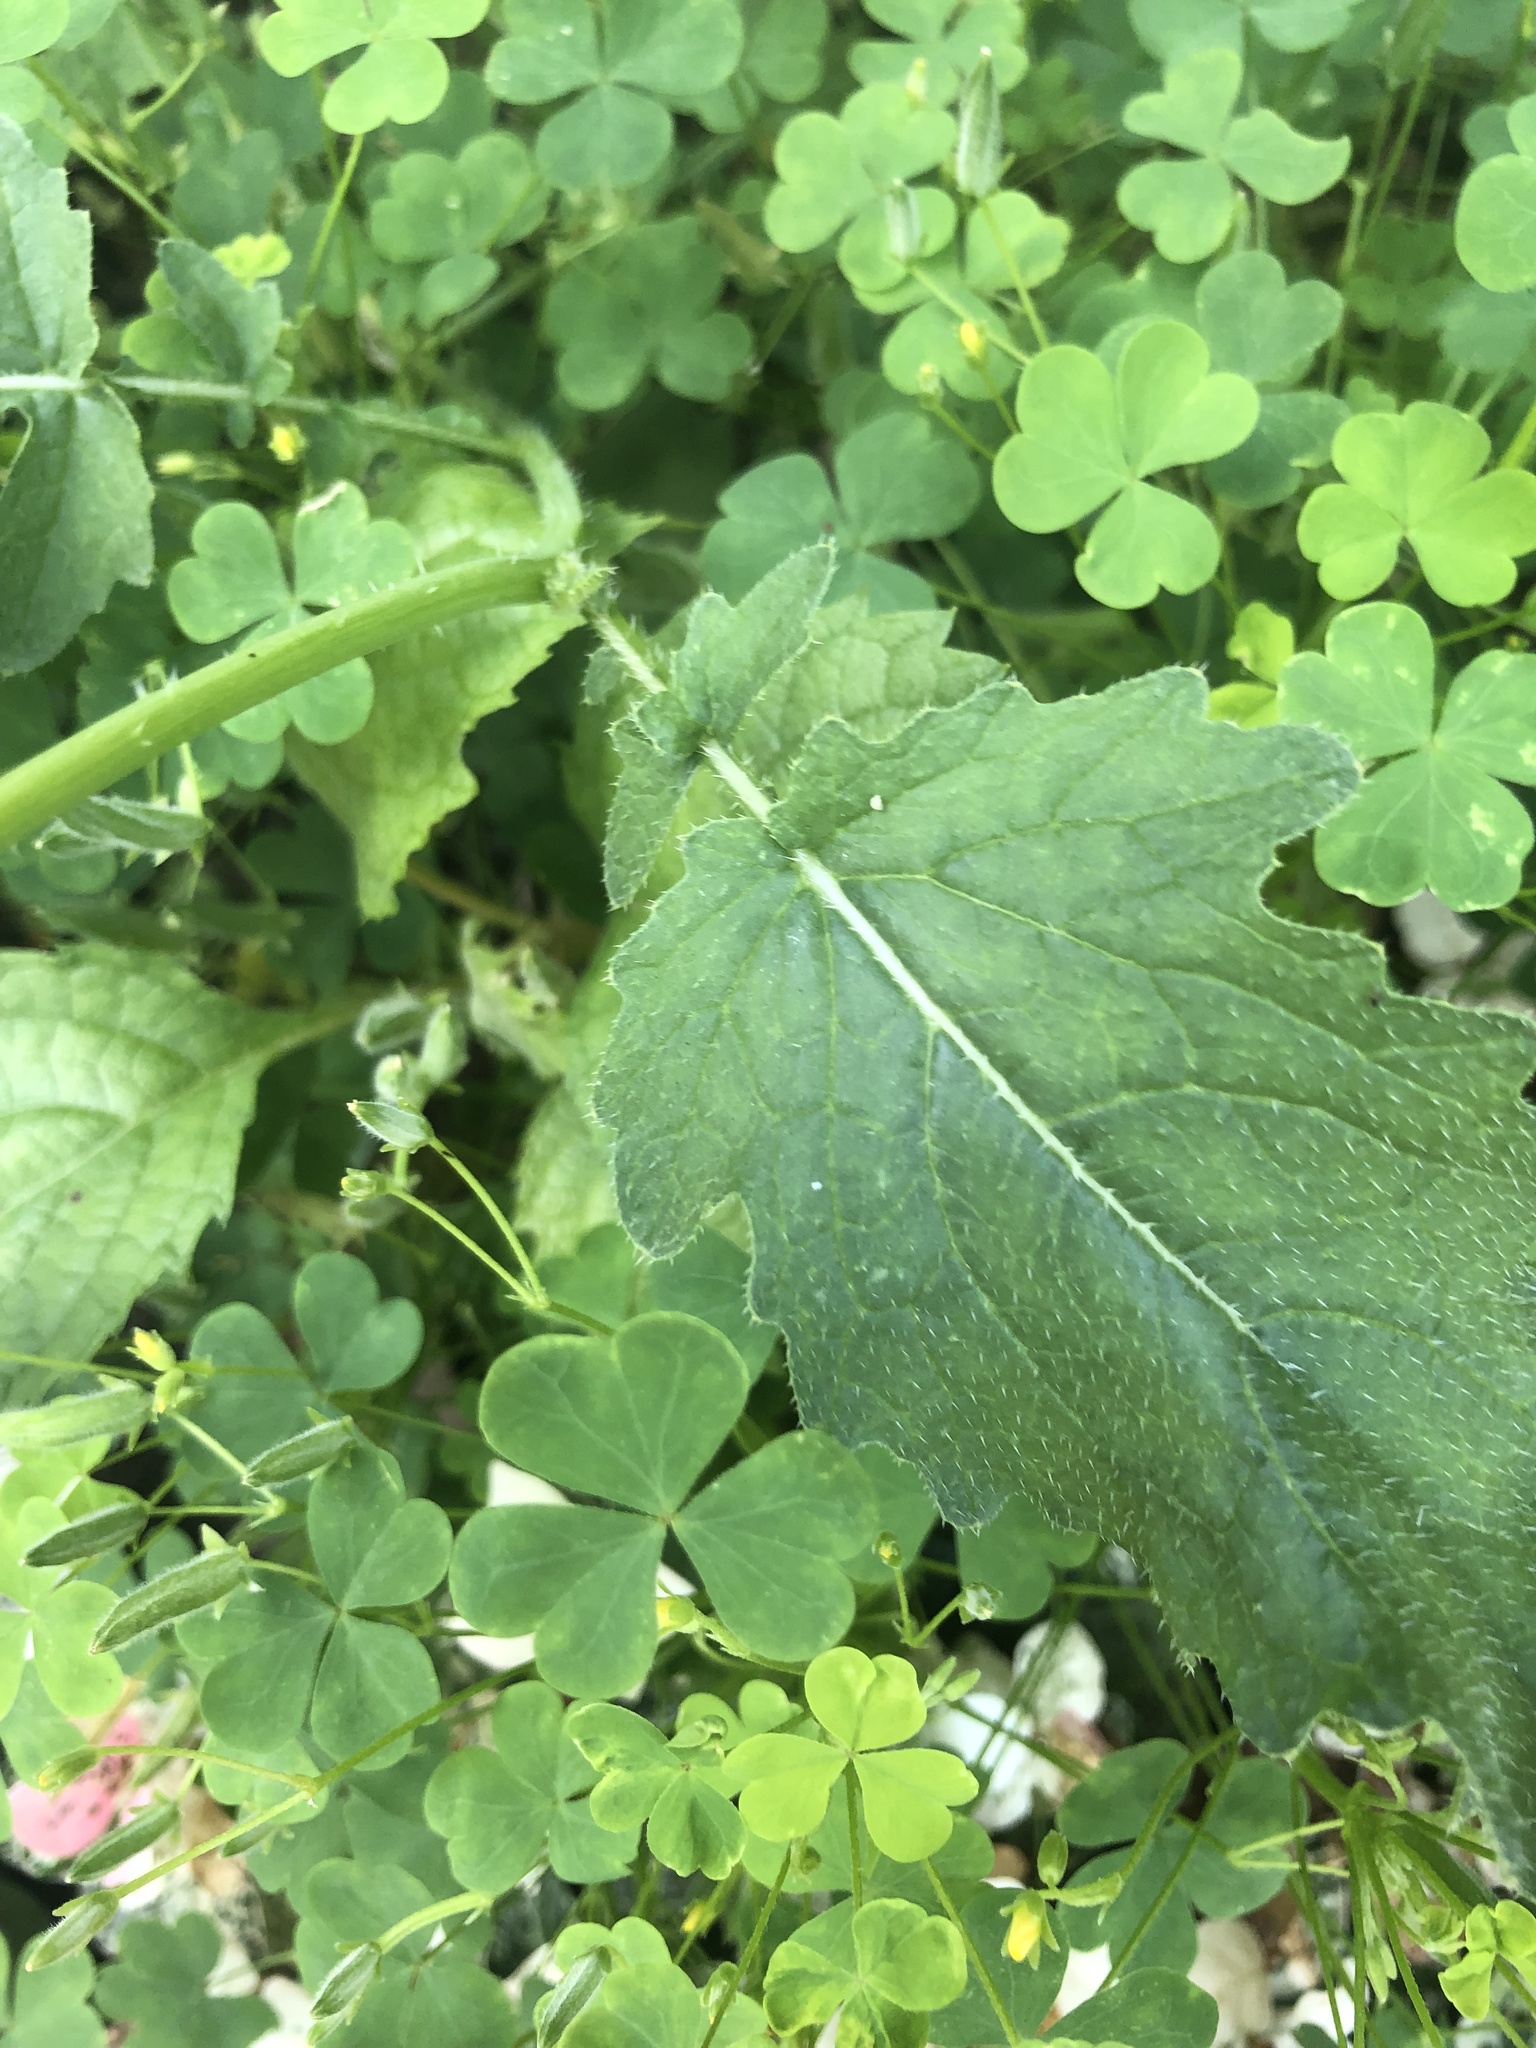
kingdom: Plantae
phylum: Tracheophyta
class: Magnoliopsida
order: Brassicales
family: Brassicaceae
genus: Raphanus
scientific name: Raphanus raphanistrum
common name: Wild radish
